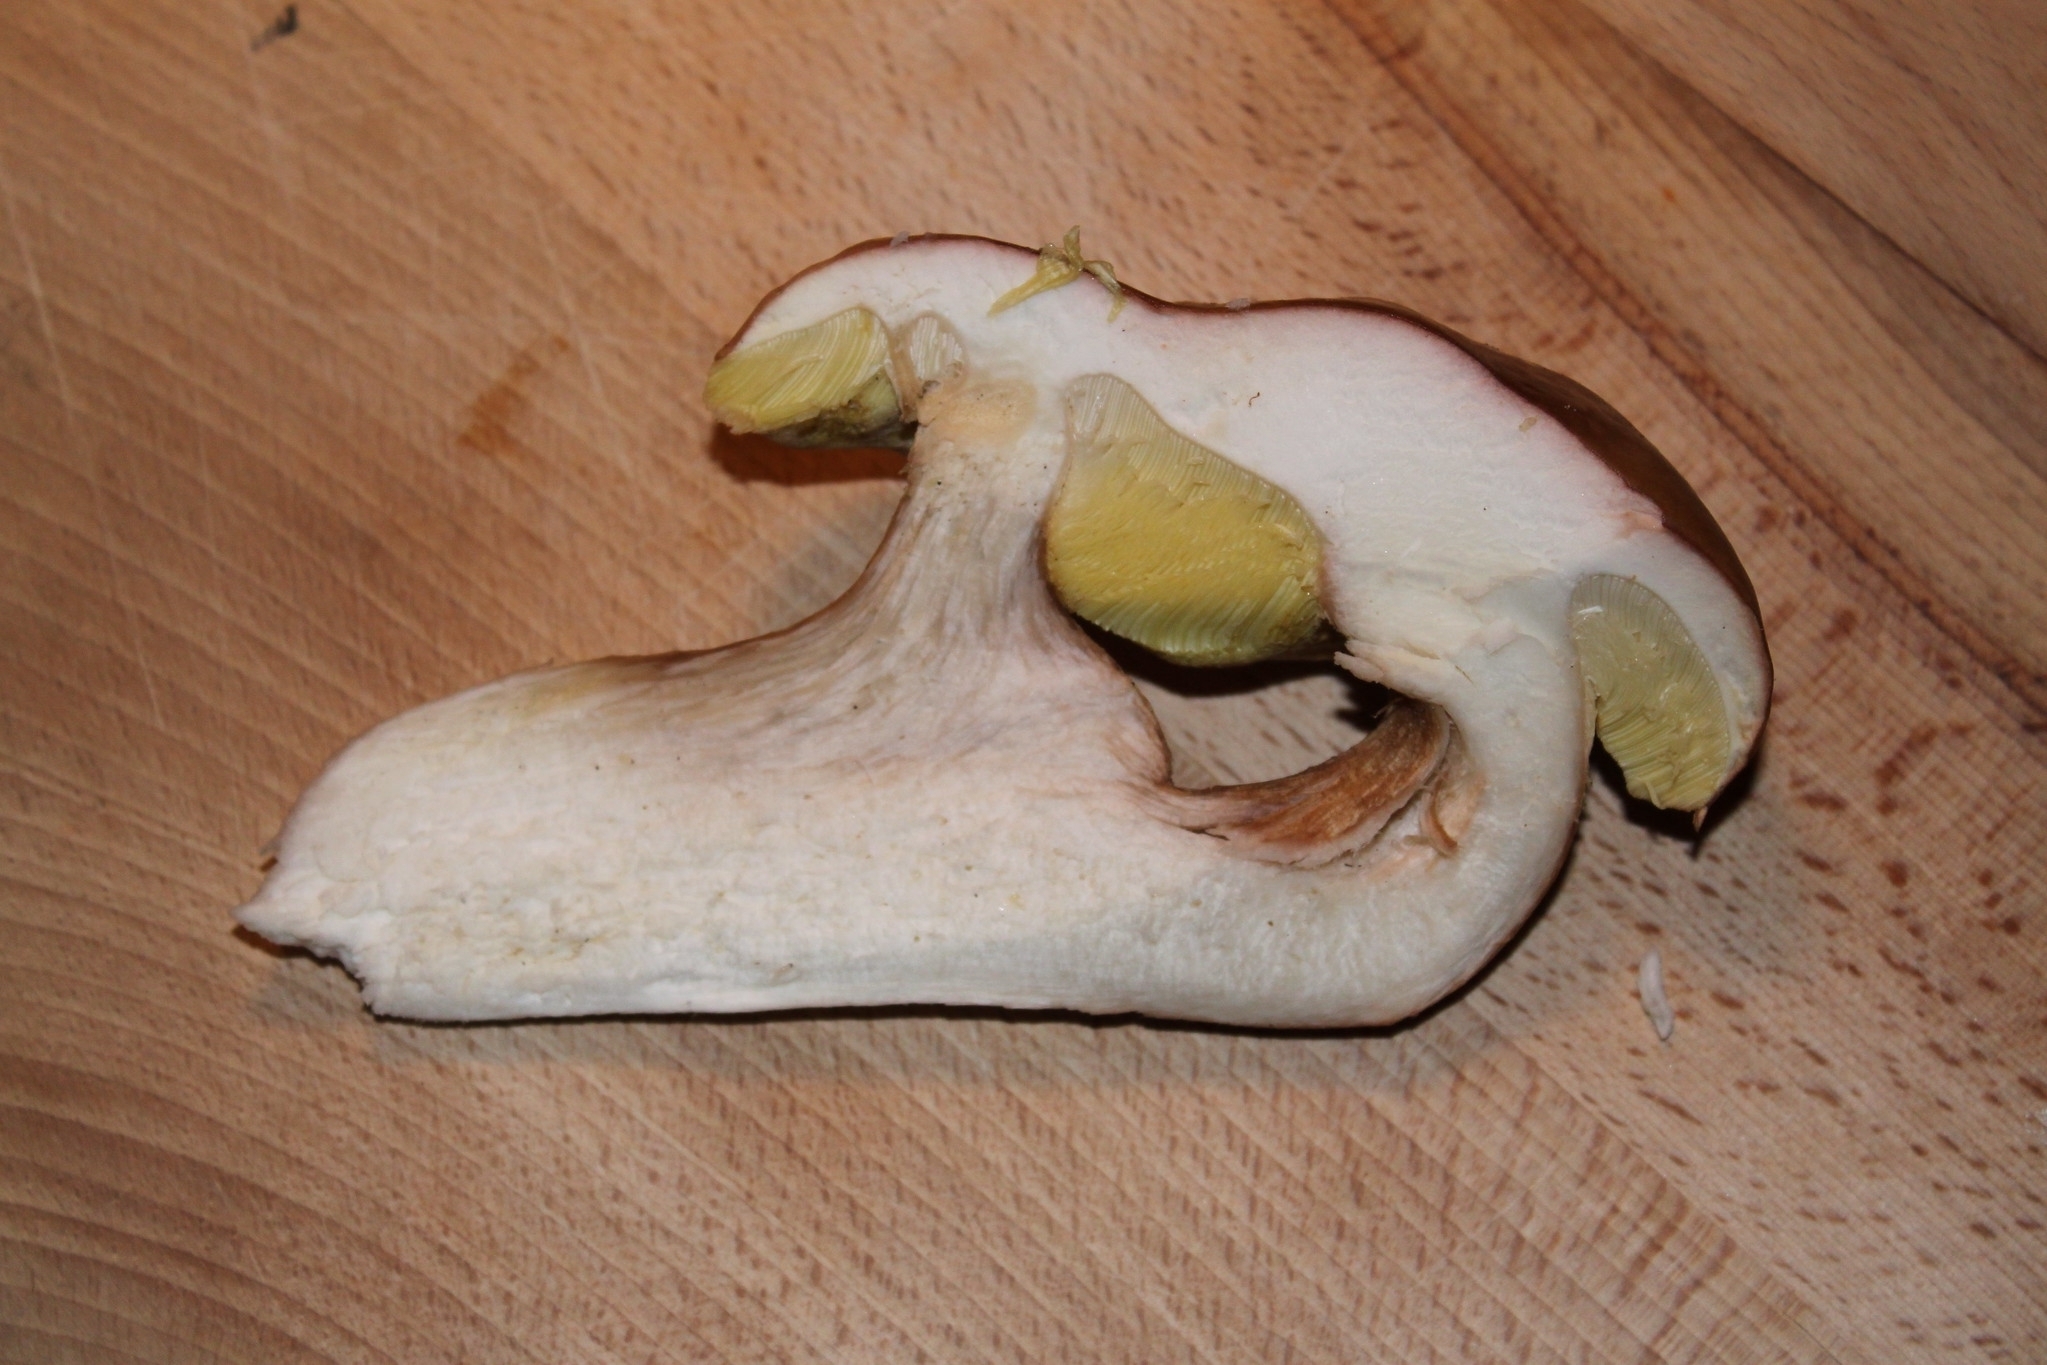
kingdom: Fungi
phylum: Basidiomycota
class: Agaricomycetes
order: Boletales
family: Boletaceae
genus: Boletus
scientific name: Boletus edulis
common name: Cep
